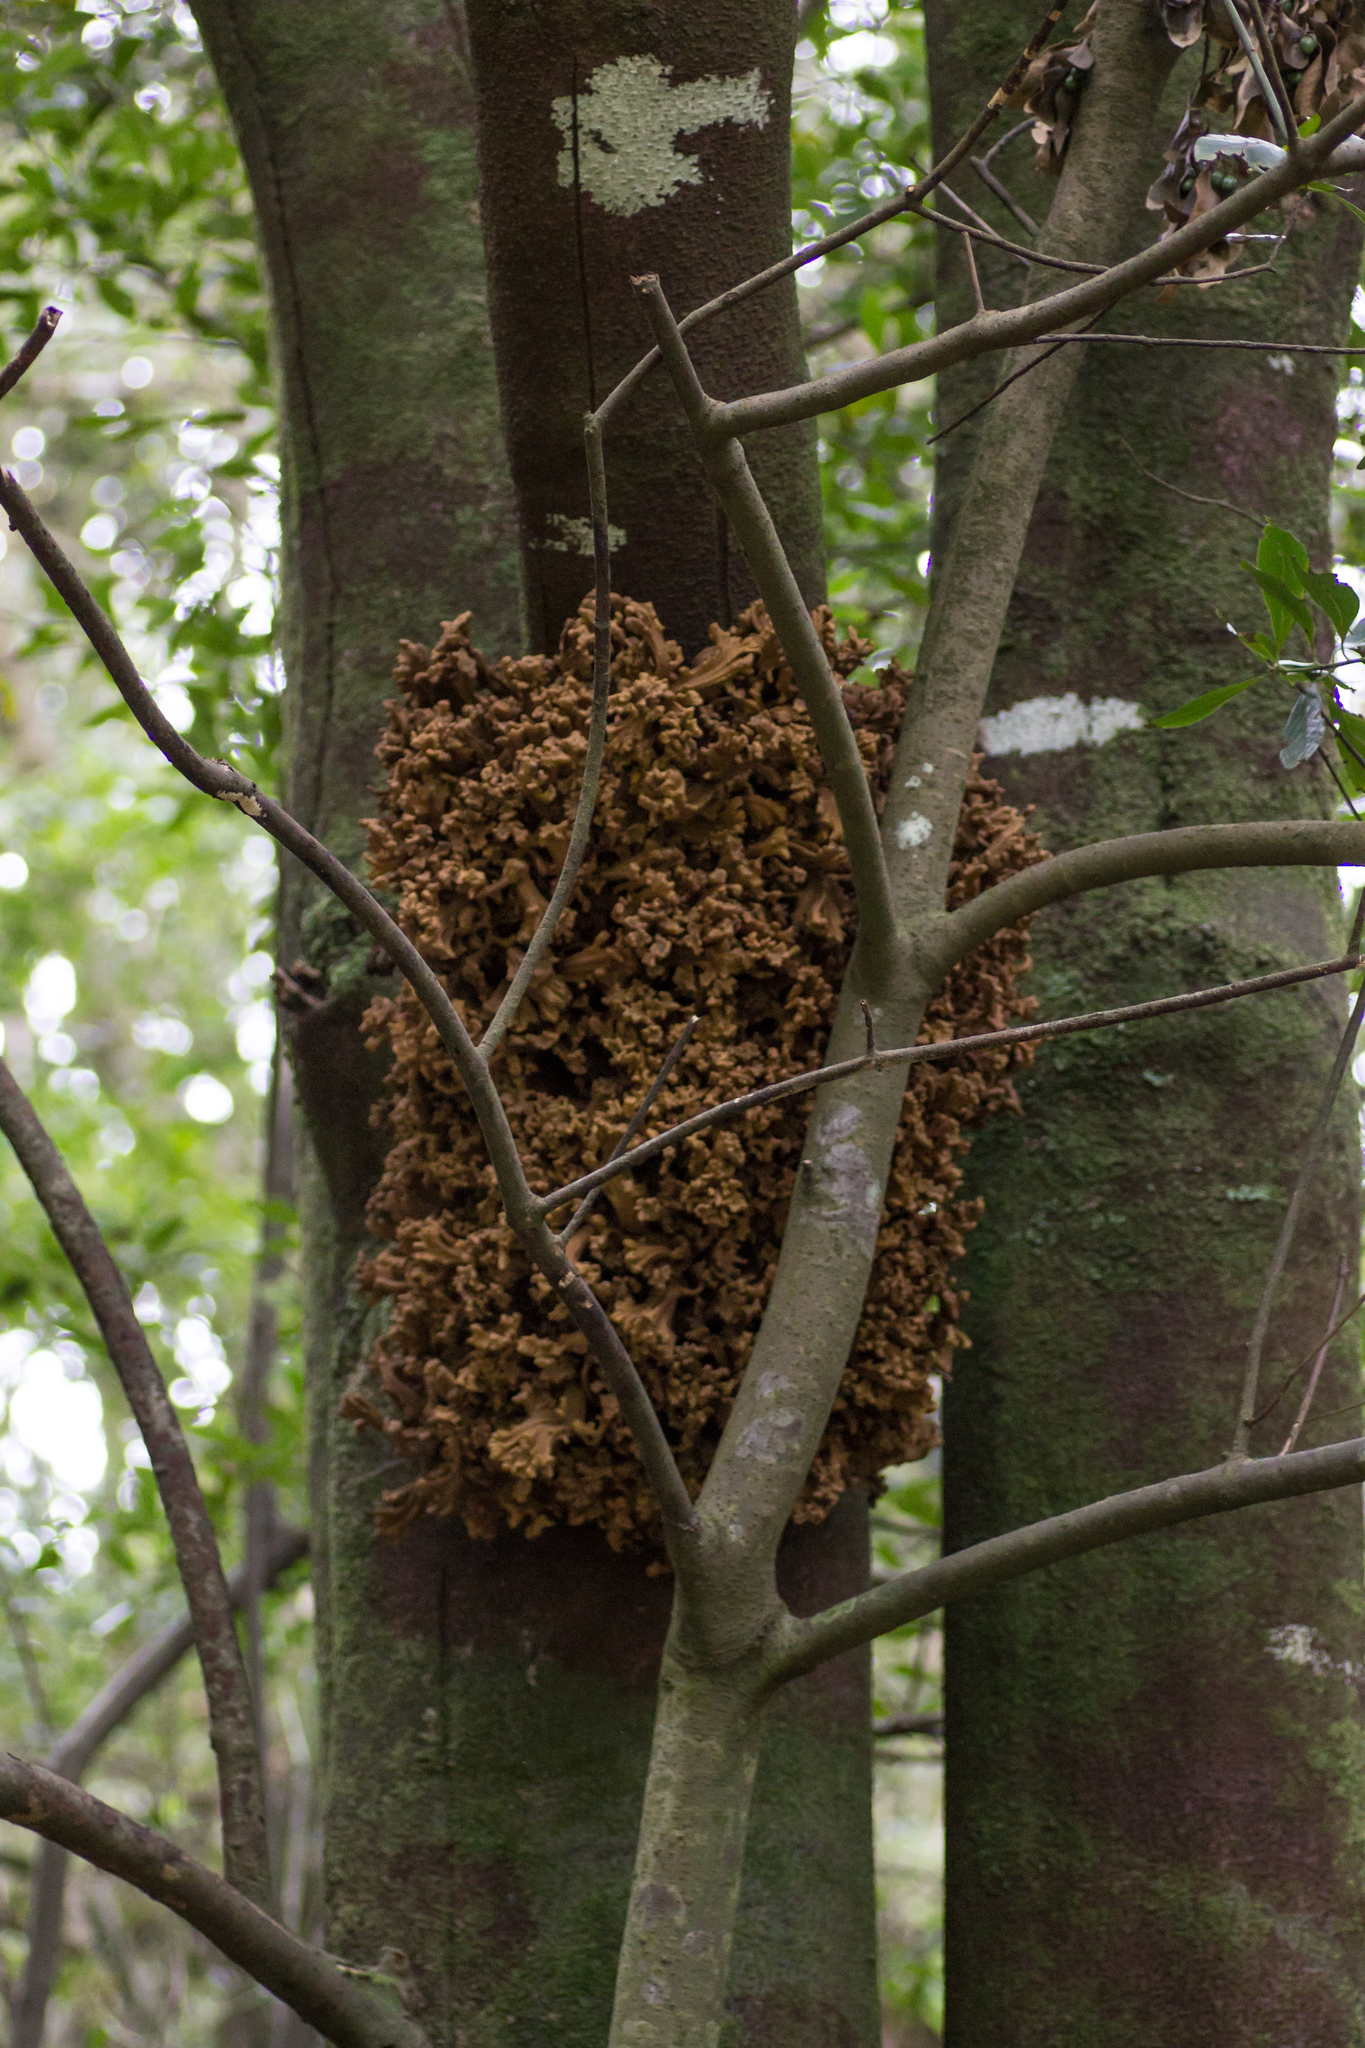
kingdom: Fungi
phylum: Basidiomycota
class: Exobasidiomycetes
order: Exobasidiales
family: Laurobasidiaceae
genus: Laurobasidium
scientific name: Laurobasidium lauri
